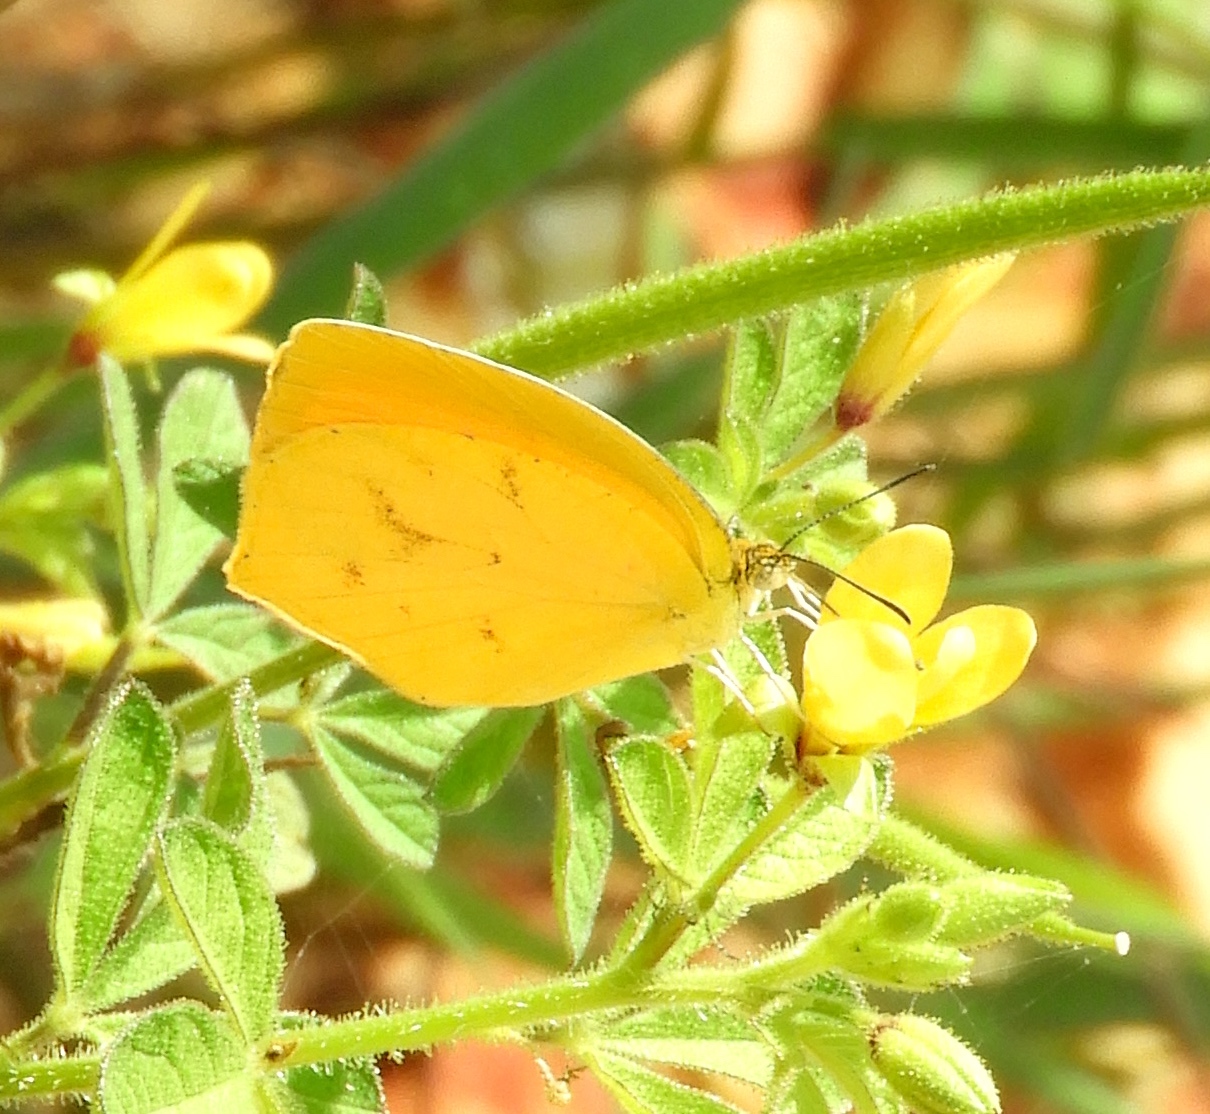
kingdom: Animalia
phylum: Arthropoda
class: Insecta
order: Lepidoptera
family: Pieridae
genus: Pyrisitia
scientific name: Pyrisitia proterpia
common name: Tailed orange
